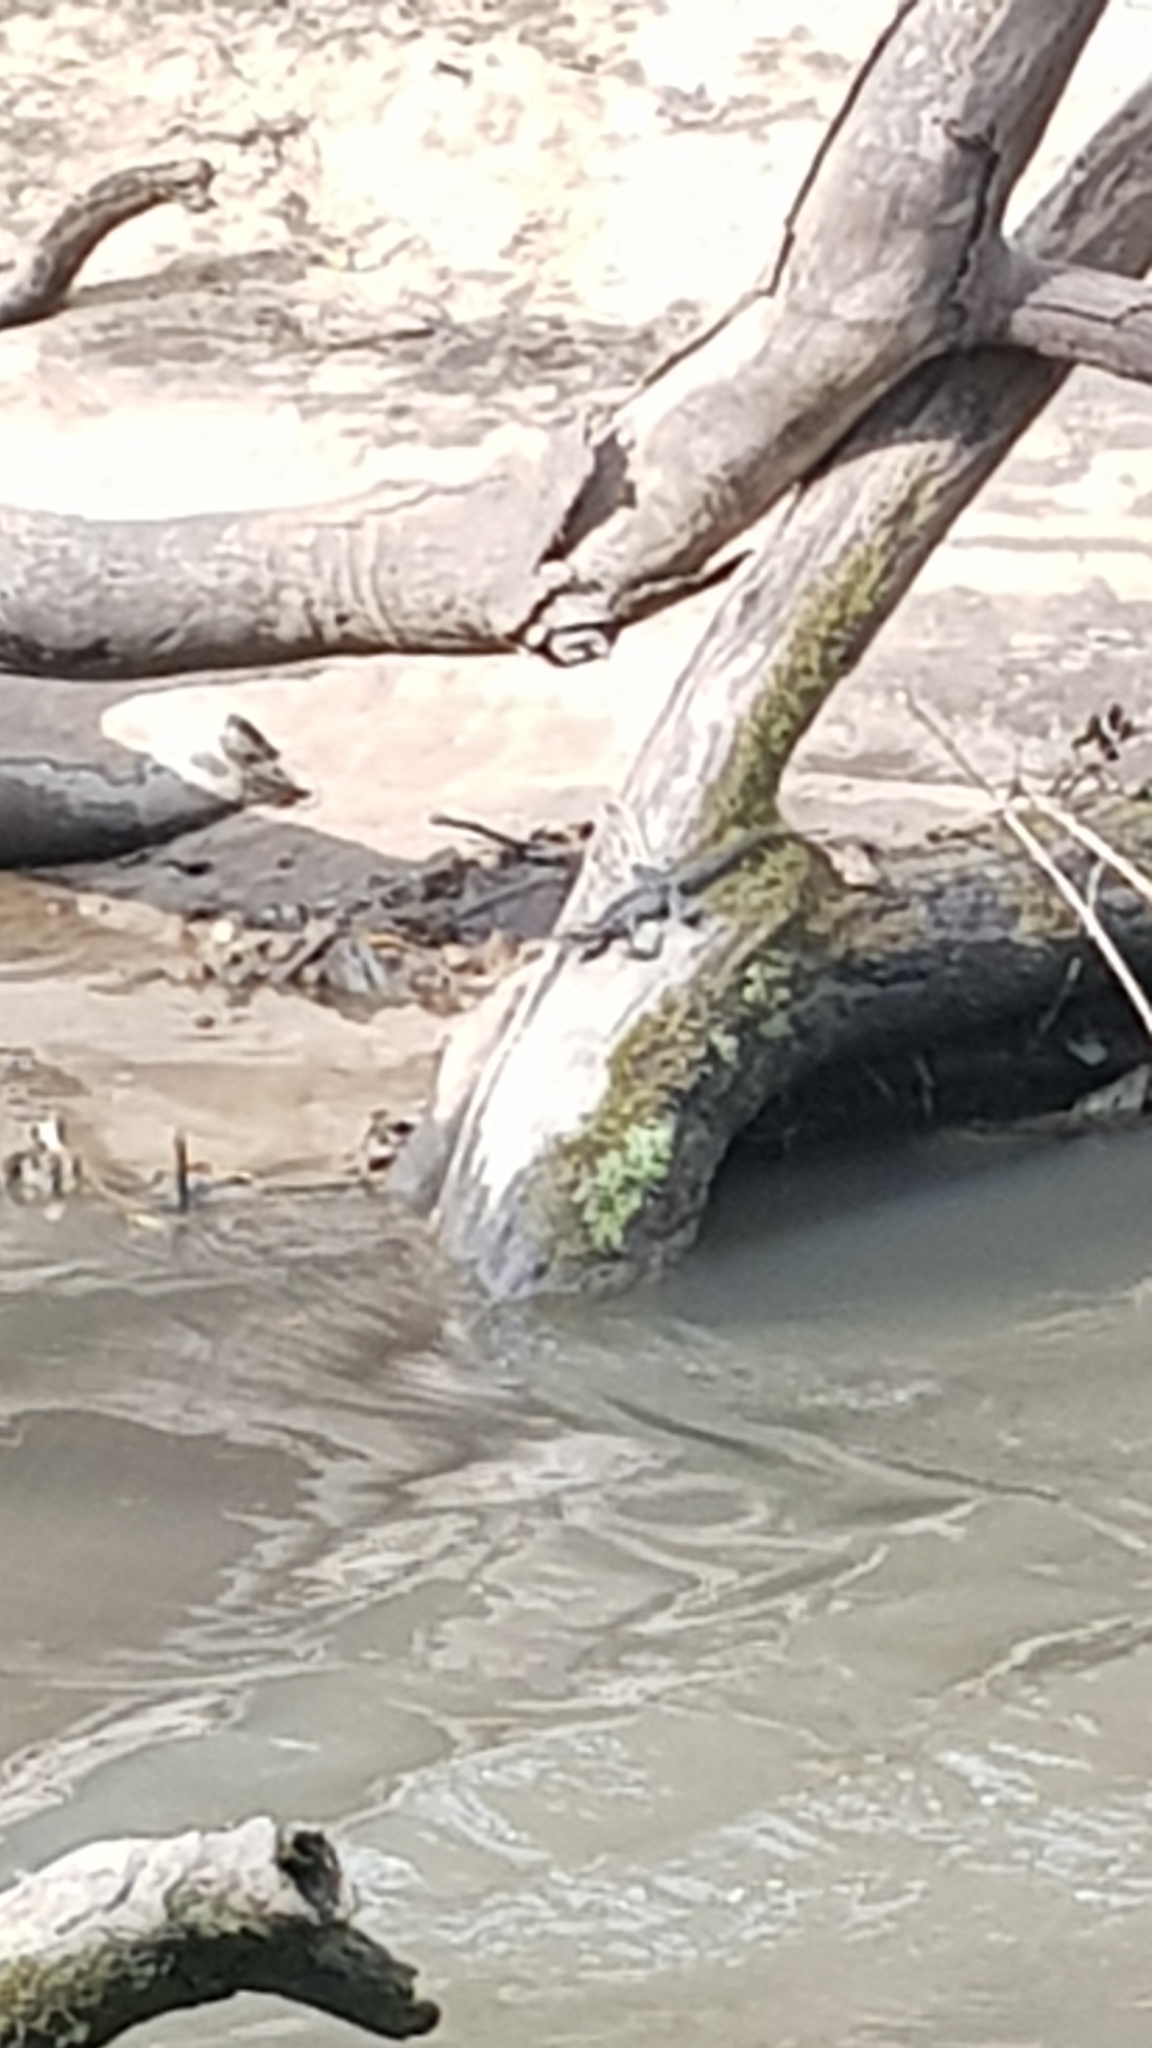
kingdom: Animalia
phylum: Chordata
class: Squamata
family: Agamidae
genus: Intellagama
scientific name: Intellagama lesueurii
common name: Eastern water dragon
